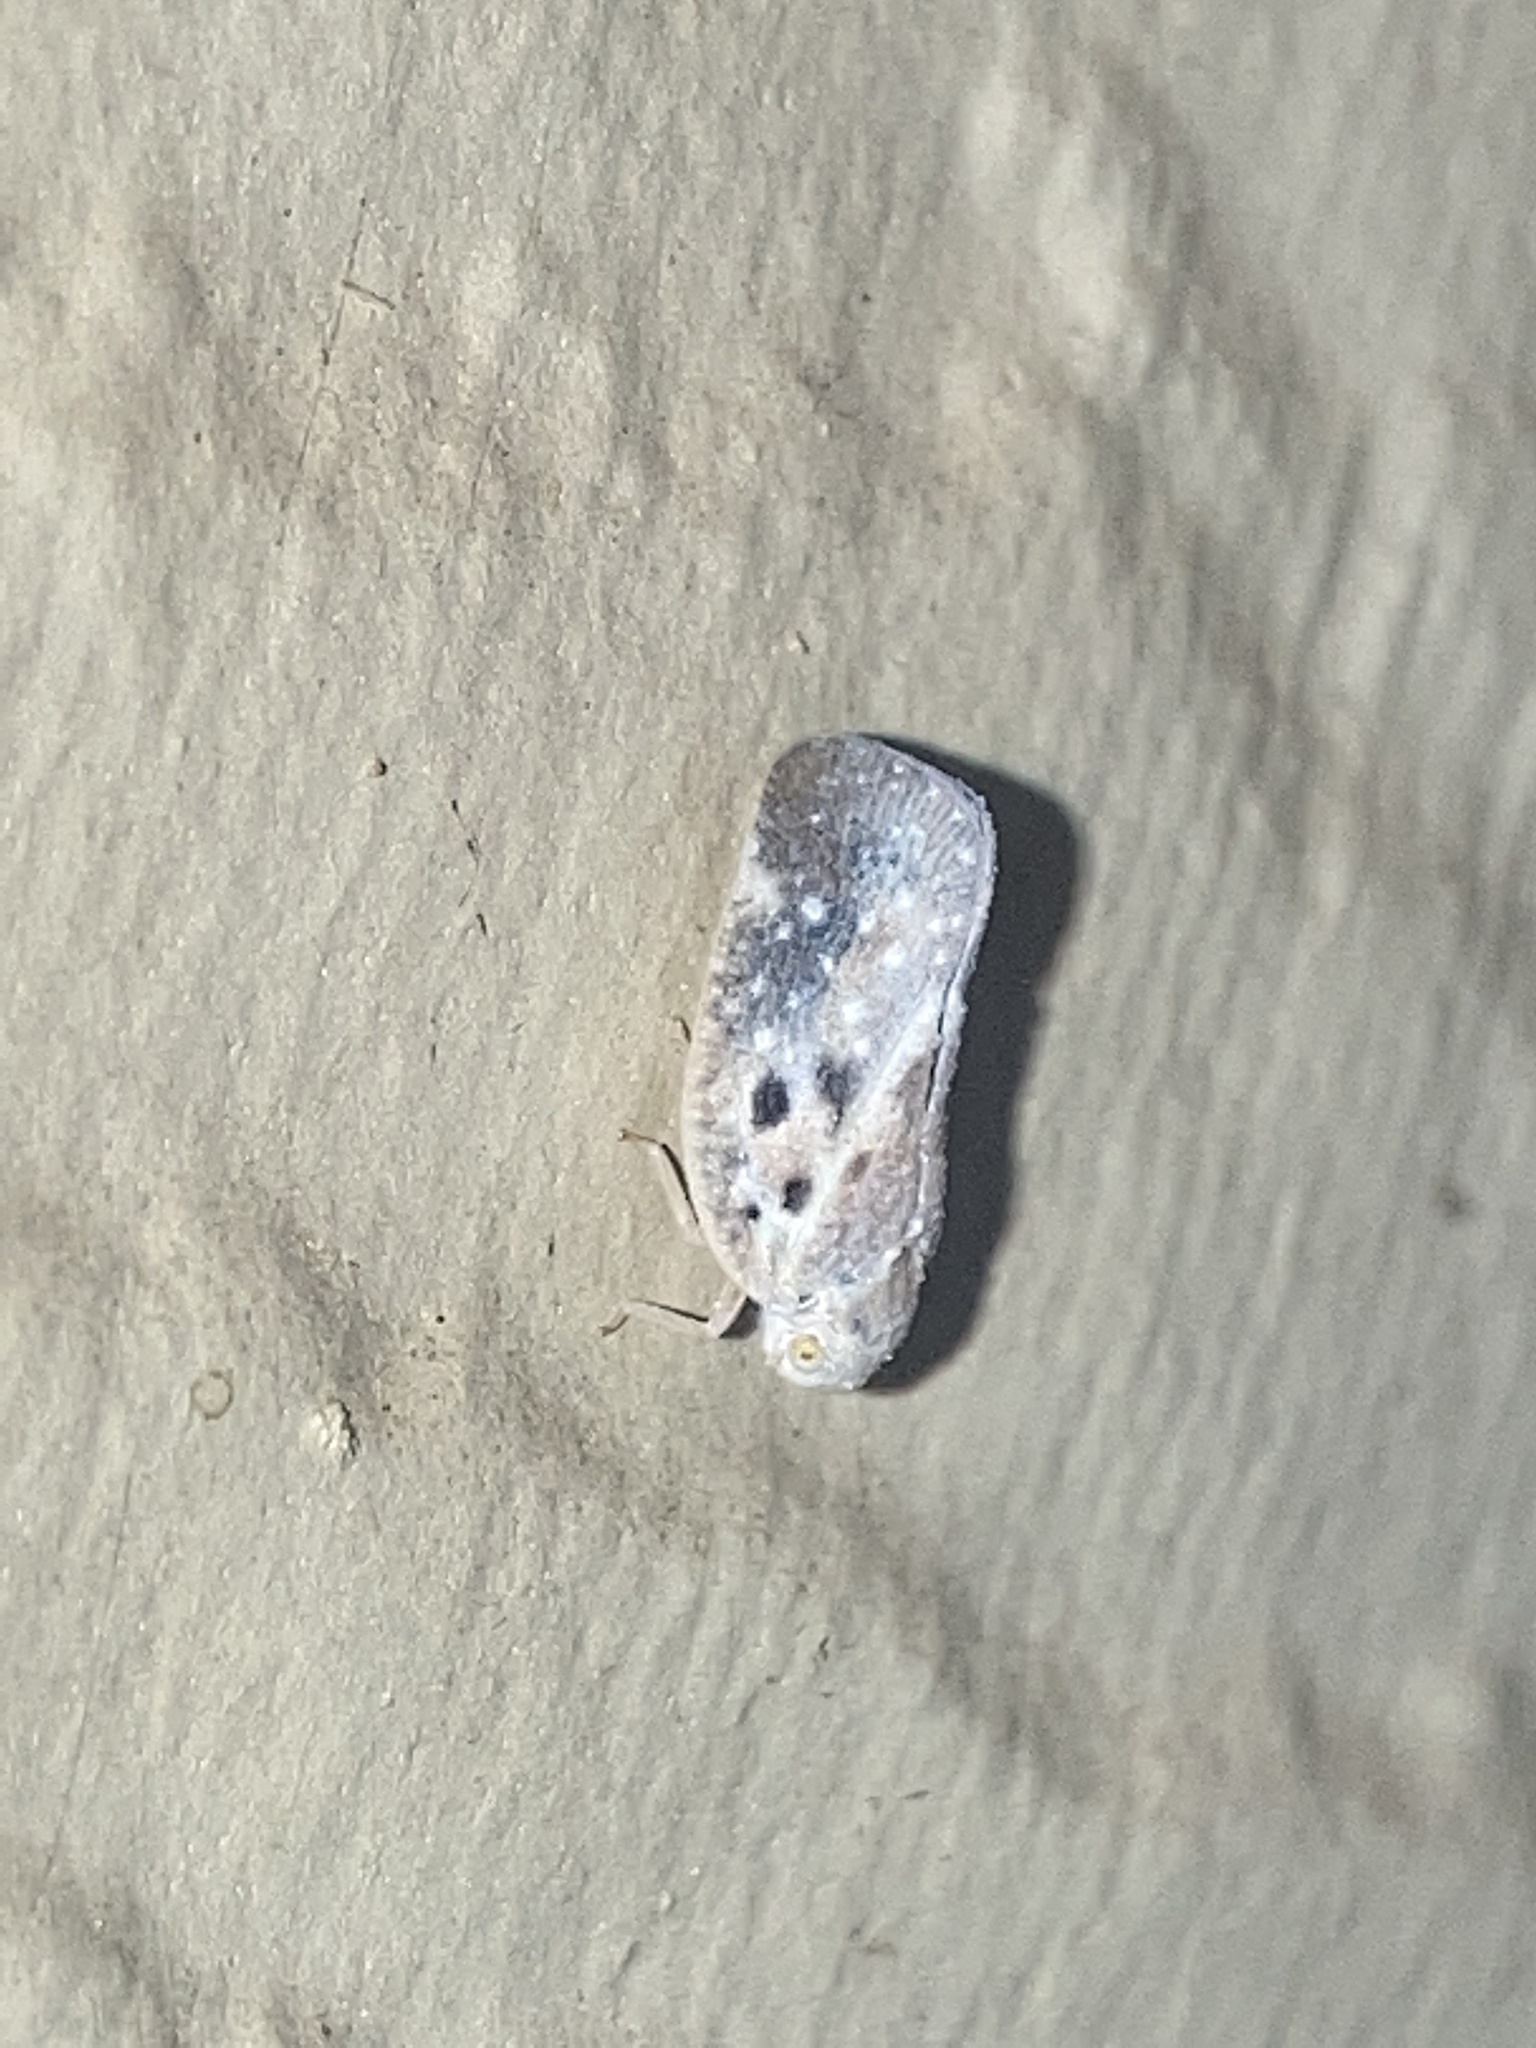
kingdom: Animalia
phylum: Arthropoda
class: Insecta
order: Hemiptera
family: Flatidae
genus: Metcalfa
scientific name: Metcalfa pruinosa
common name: Citrus flatid planthopper
